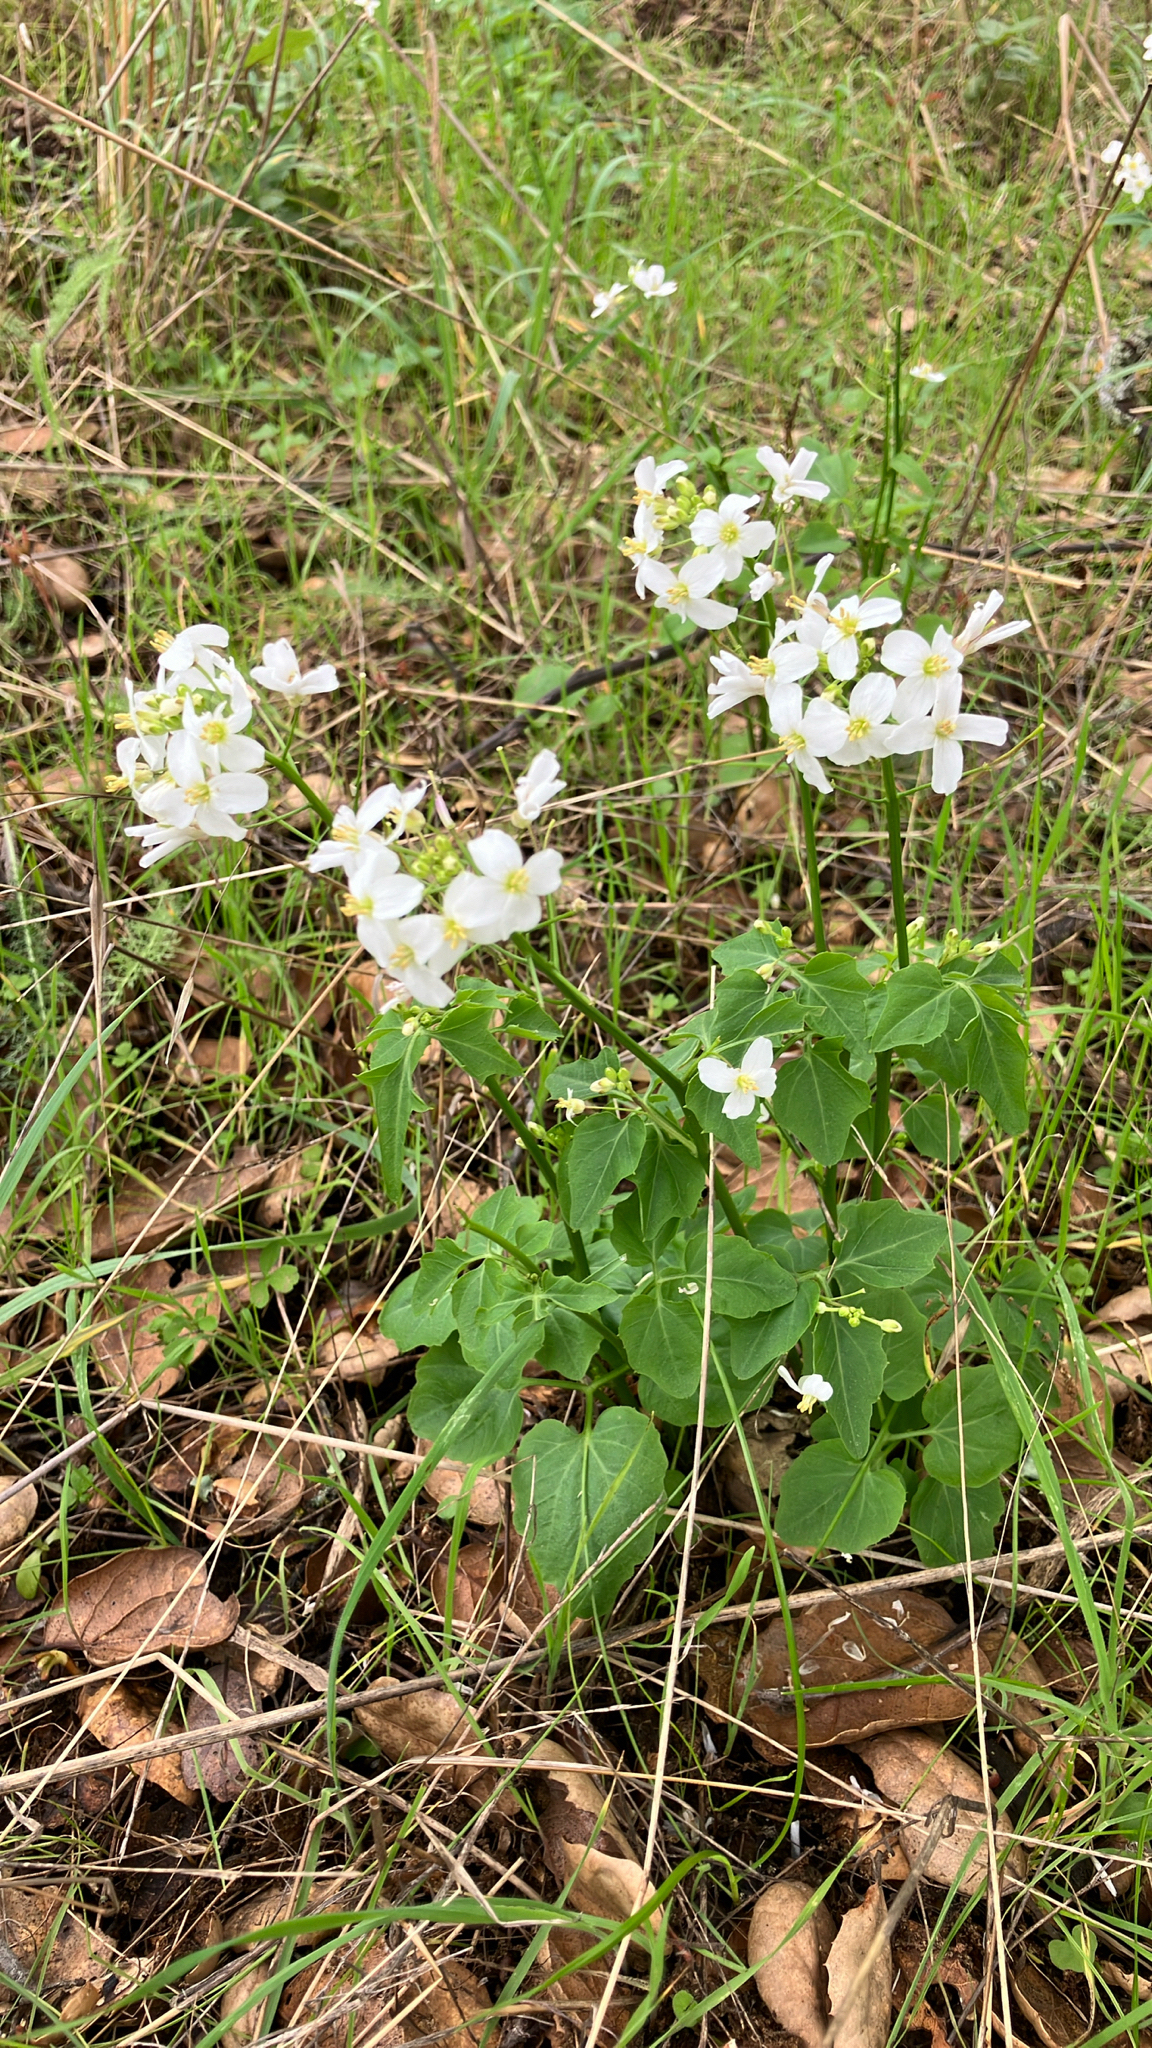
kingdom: Plantae
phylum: Tracheophyta
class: Magnoliopsida
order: Brassicales
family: Brassicaceae
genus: Cardamine
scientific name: Cardamine californica
